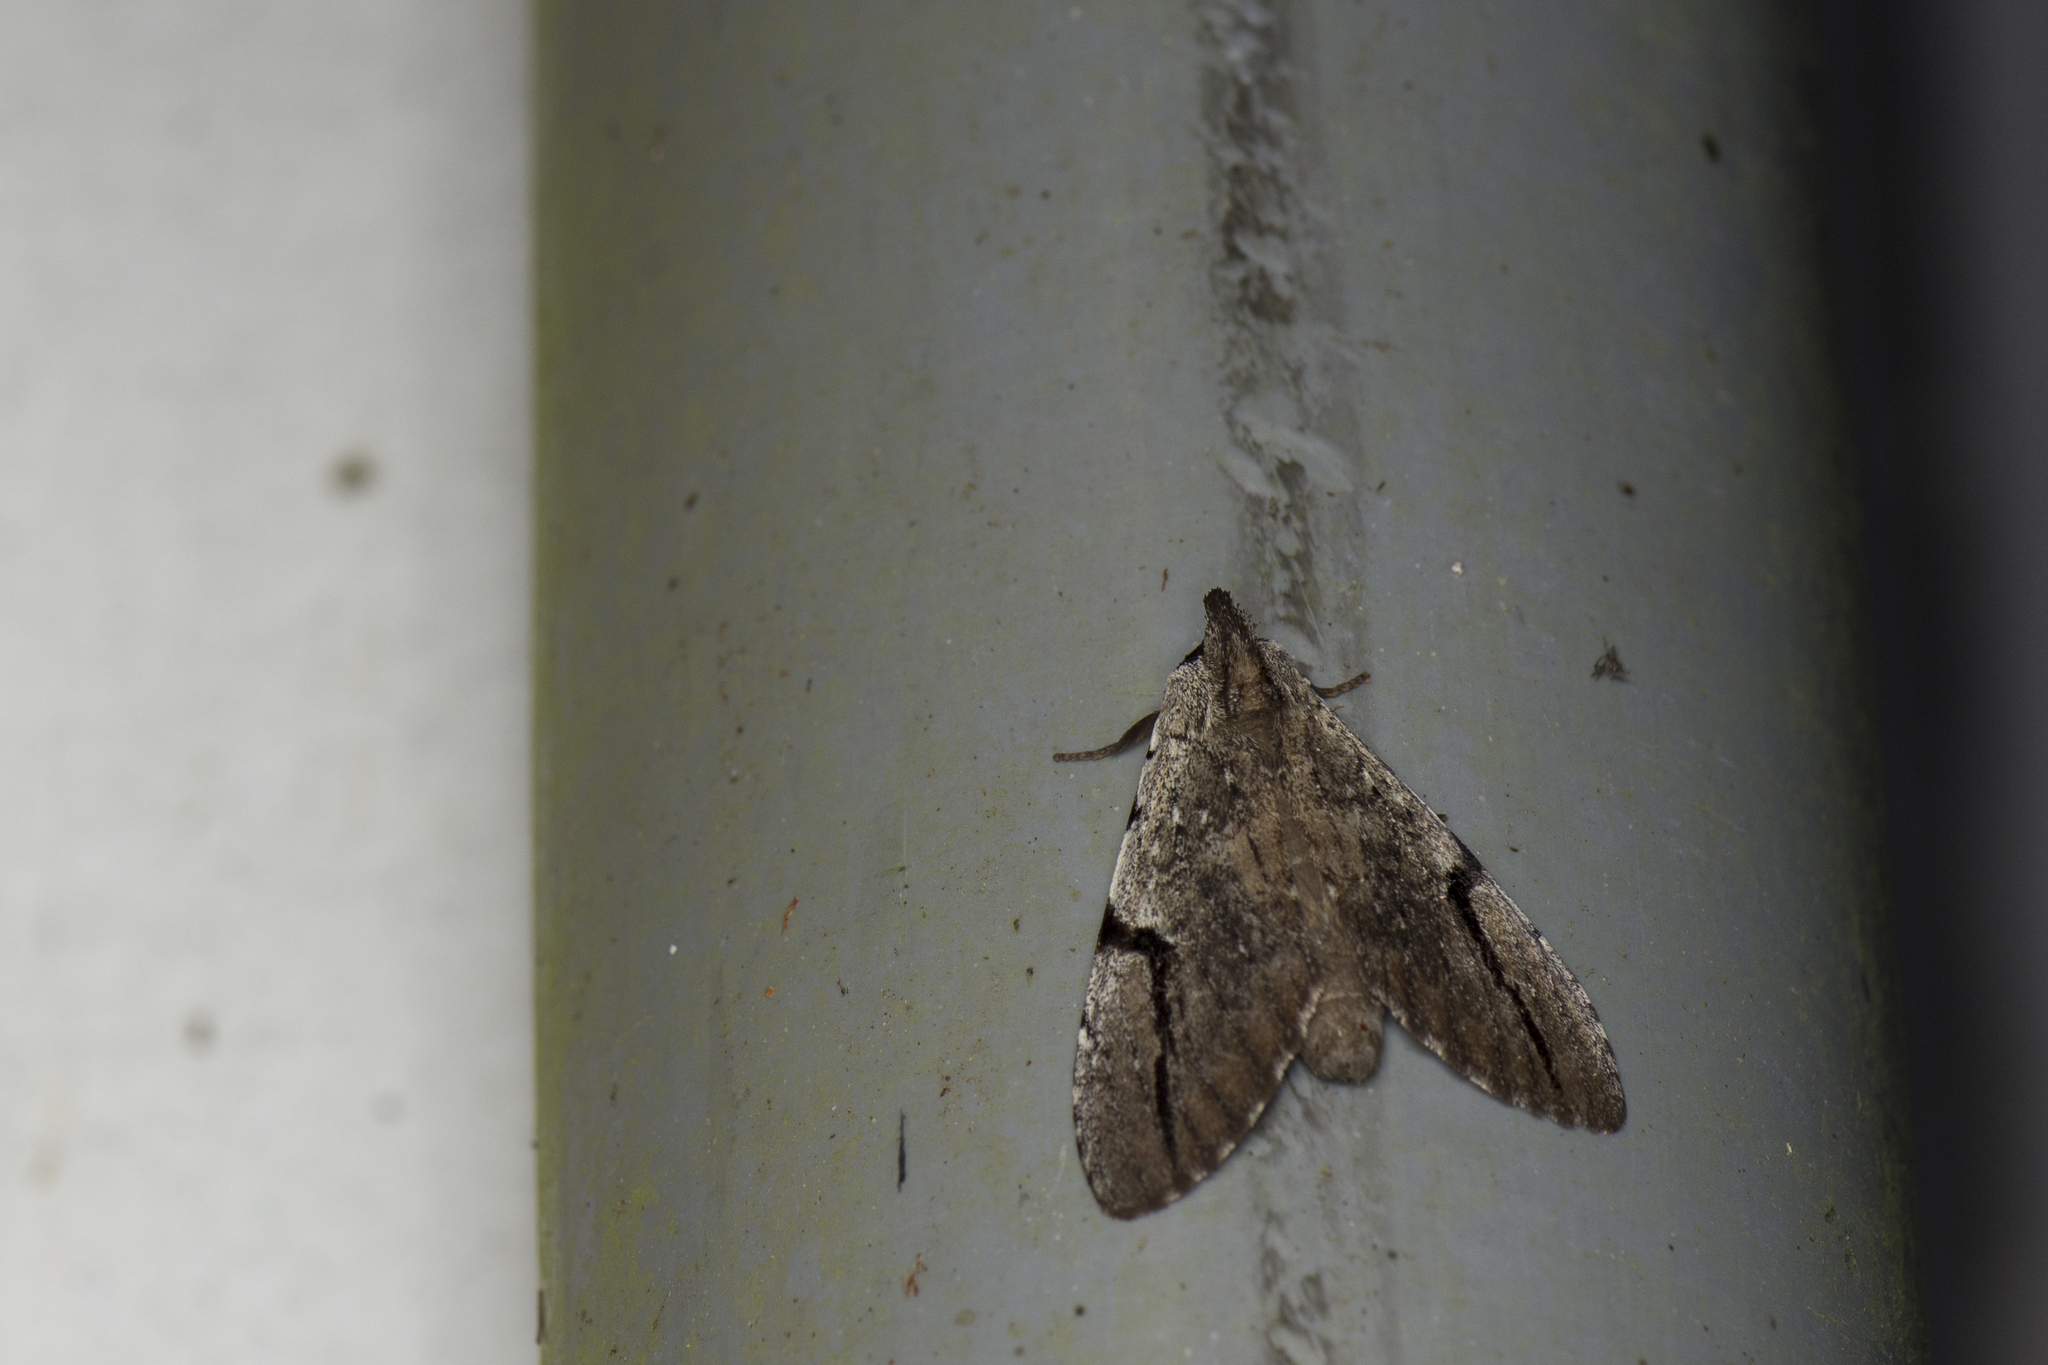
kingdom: Animalia
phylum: Arthropoda
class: Insecta
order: Lepidoptera
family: Notodontidae
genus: Lophocosma
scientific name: Lophocosma nigrilinea
